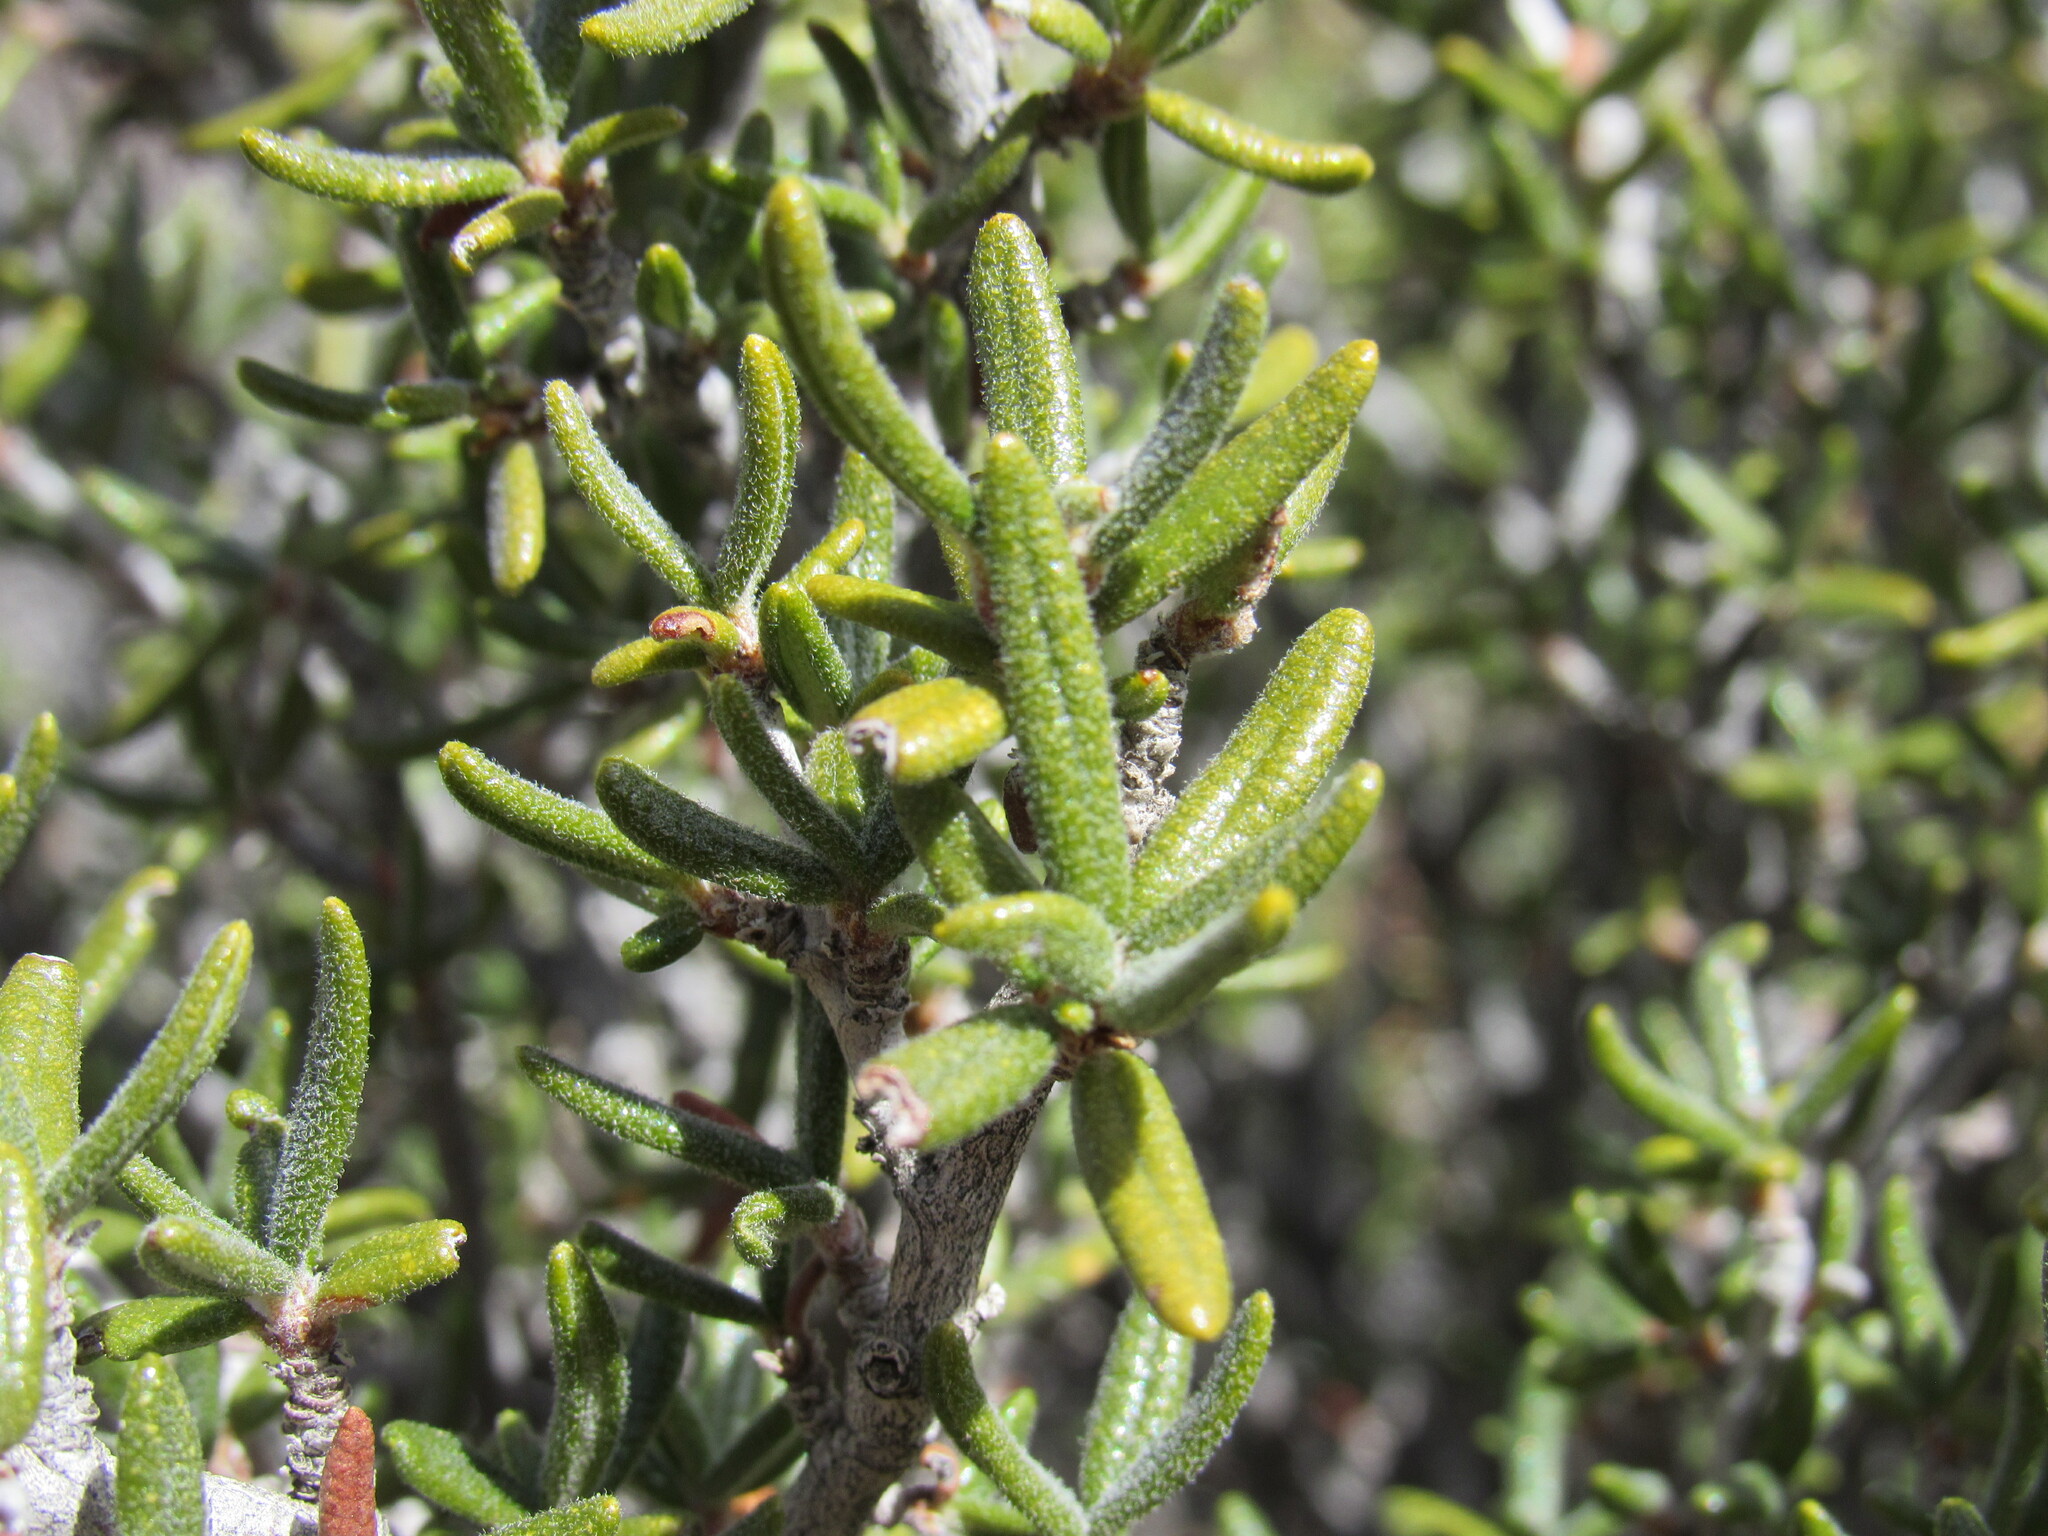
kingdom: Plantae
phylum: Tracheophyta
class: Magnoliopsida
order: Rosales
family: Rosaceae
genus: Cercocarpus
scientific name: Cercocarpus intricatus
